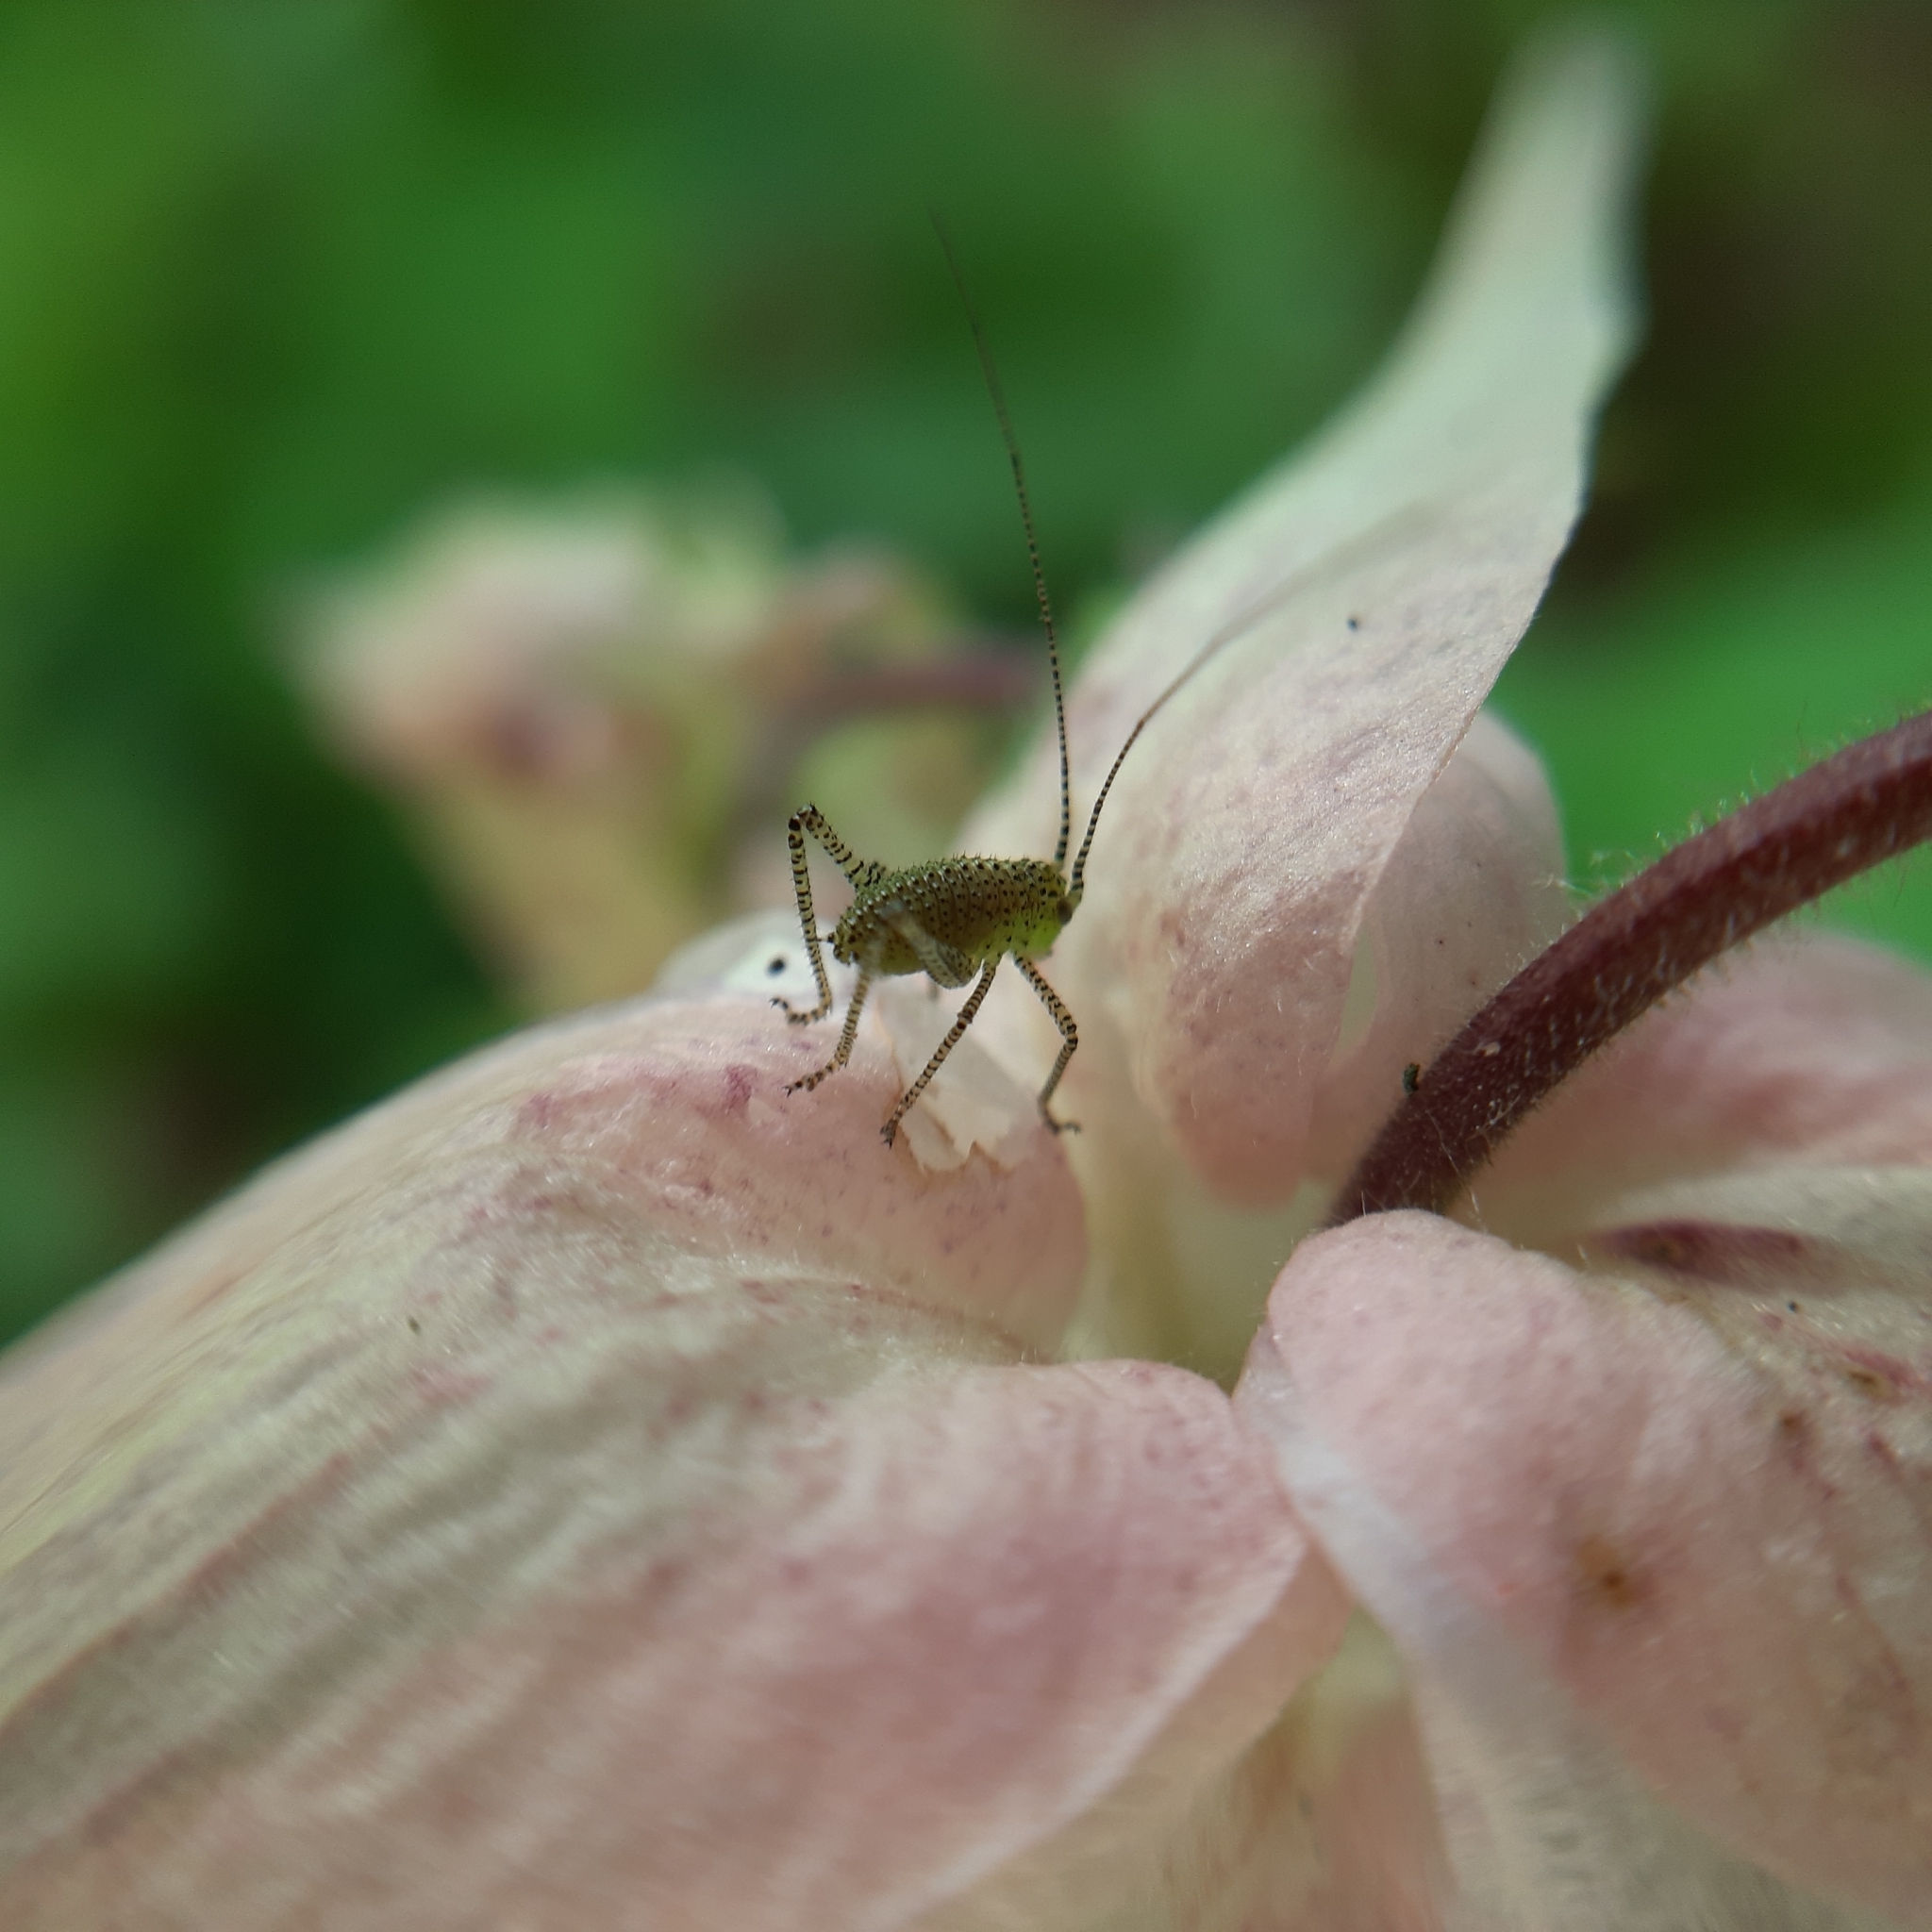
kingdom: Animalia
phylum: Arthropoda
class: Insecta
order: Orthoptera
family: Tettigoniidae
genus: Leptophyes
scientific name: Leptophyes punctatissima
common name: Speckled bush-cricket
